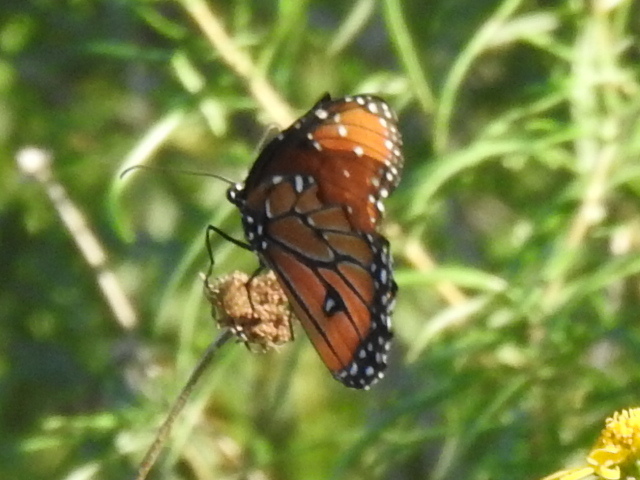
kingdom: Animalia
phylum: Arthropoda
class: Insecta
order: Lepidoptera
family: Nymphalidae
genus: Danaus
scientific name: Danaus gilippus
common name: Queen
